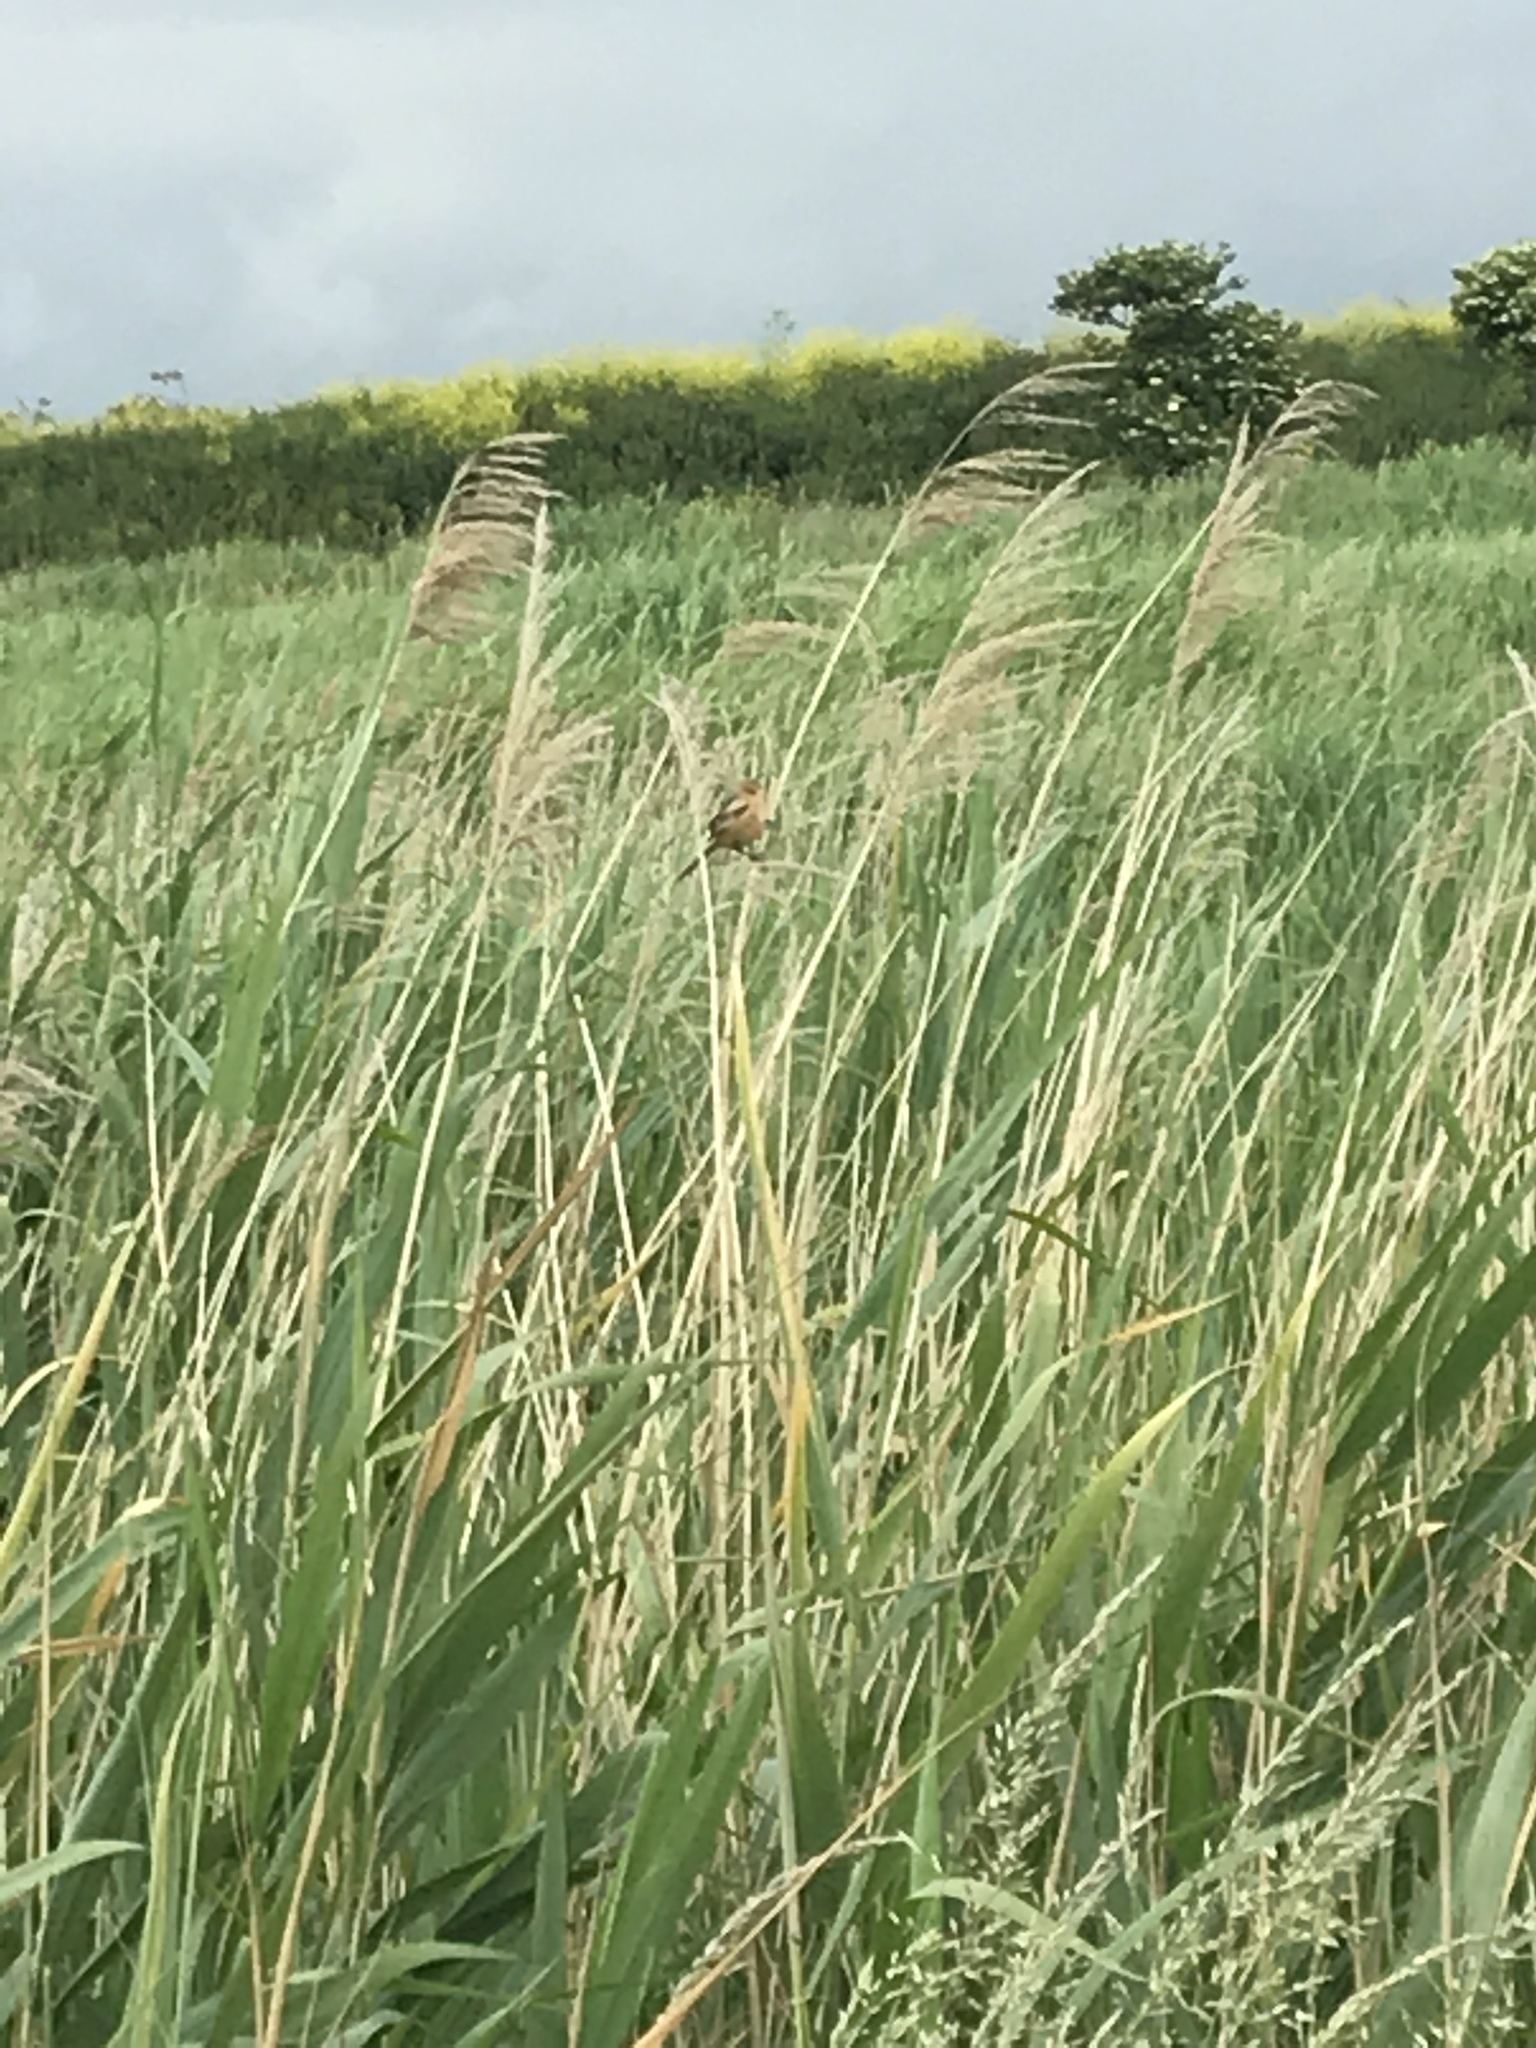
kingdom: Animalia
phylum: Chordata
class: Aves
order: Passeriformes
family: Panuridae
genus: Panurus
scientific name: Panurus biarmicus
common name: Bearded reedling
